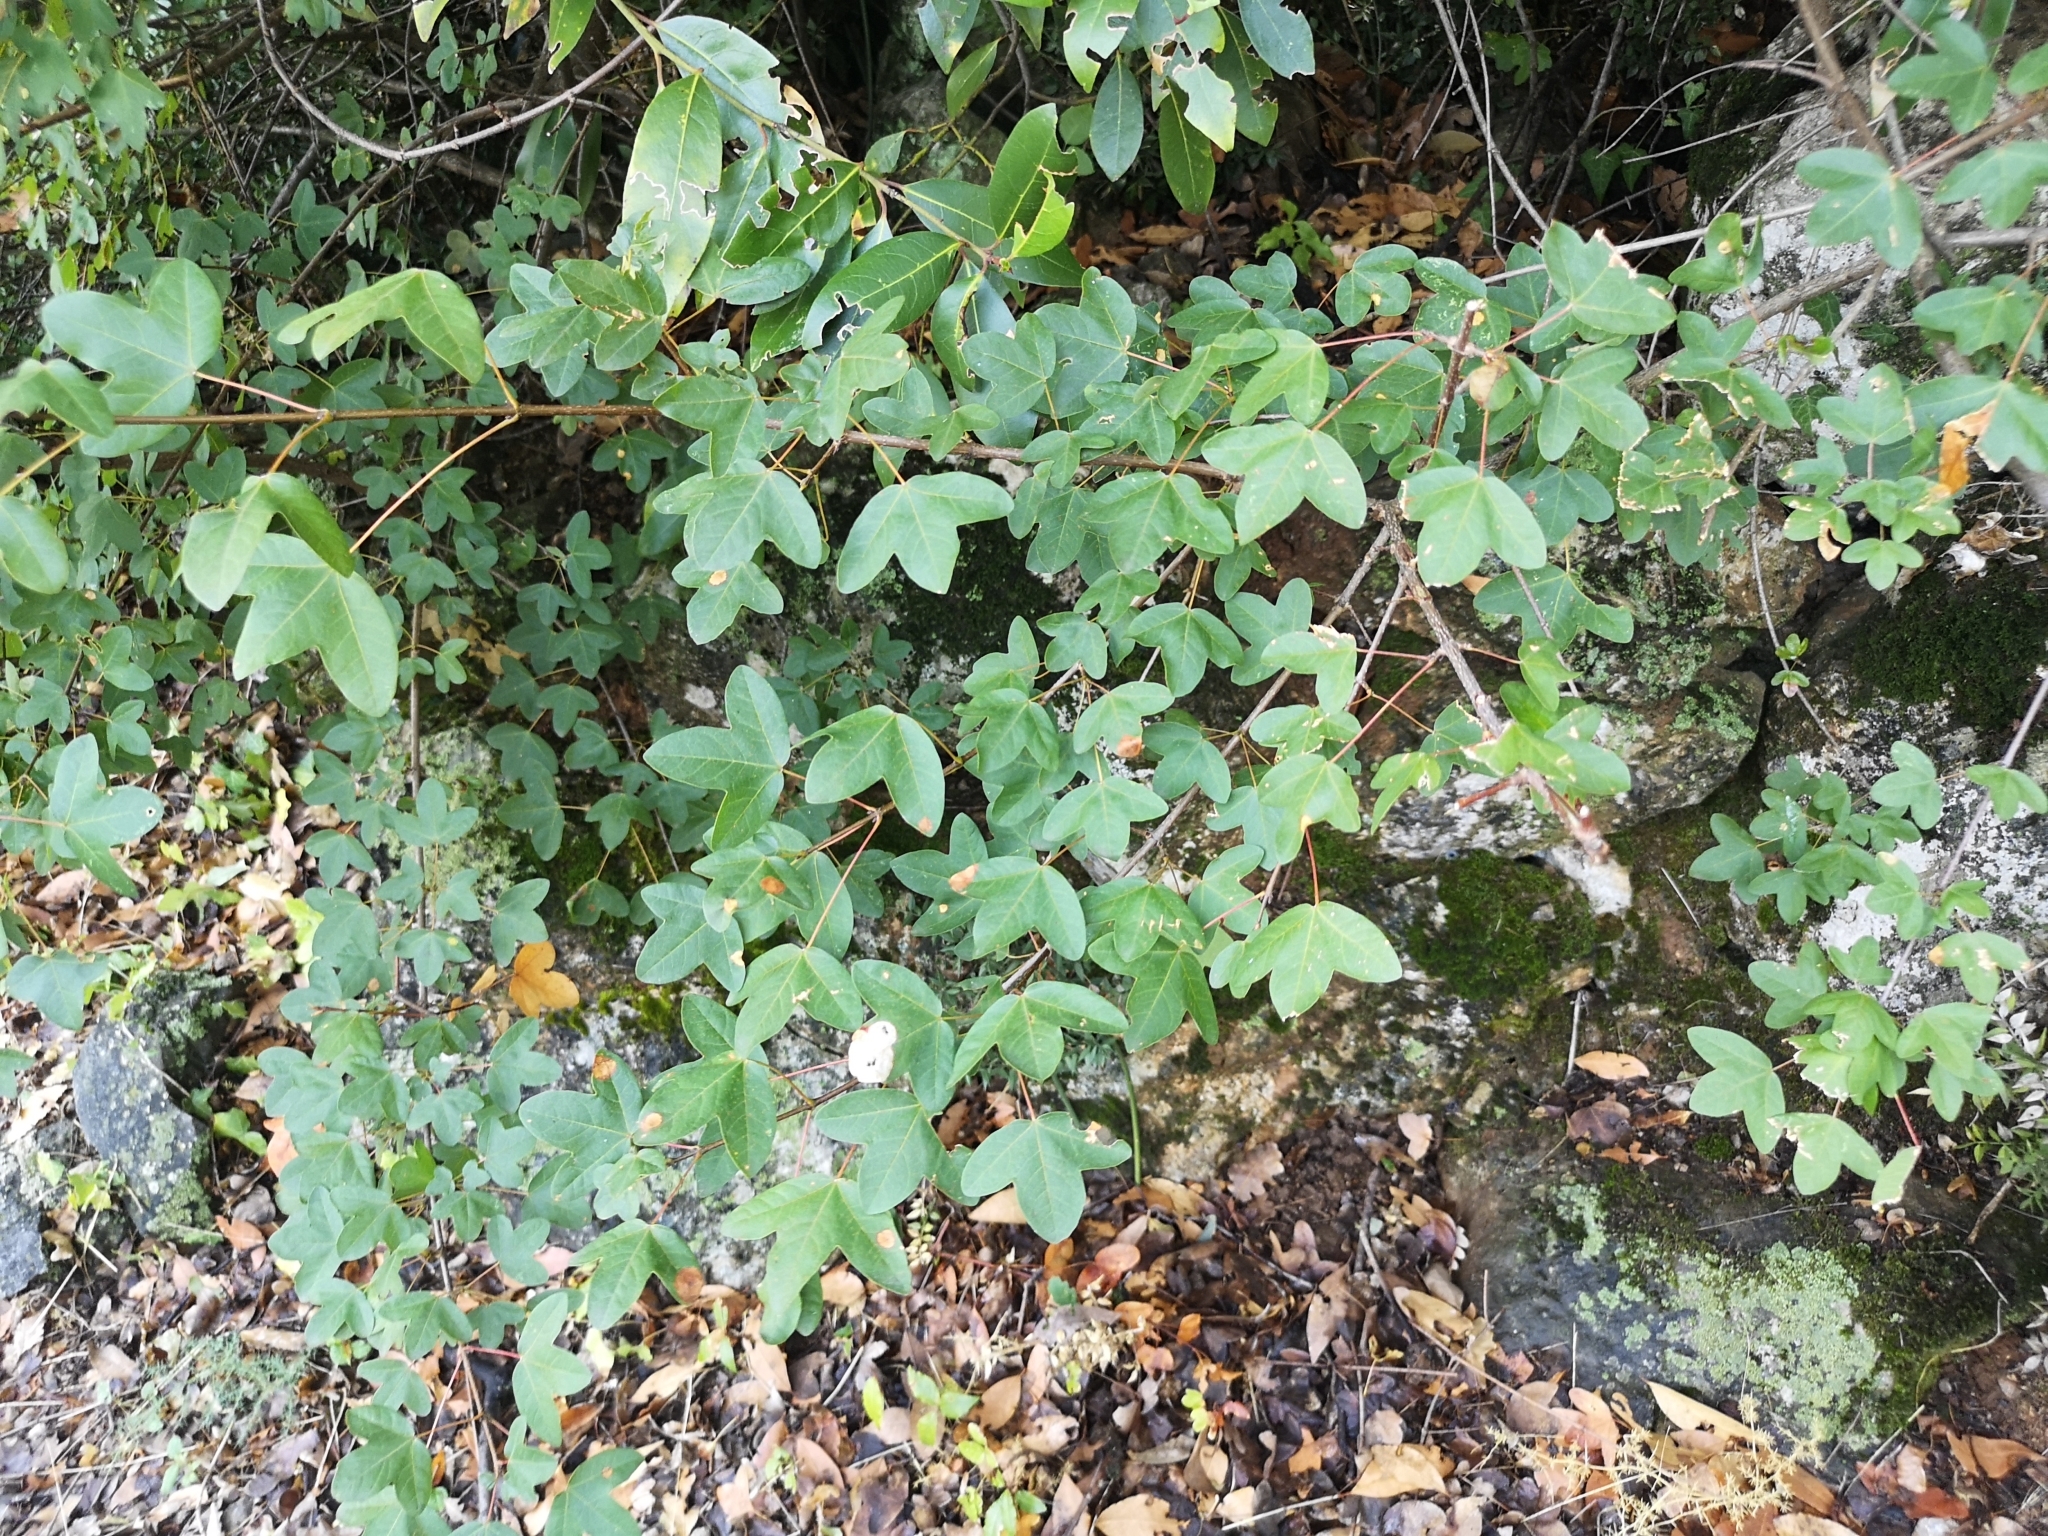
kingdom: Plantae
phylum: Tracheophyta
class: Magnoliopsida
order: Sapindales
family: Sapindaceae
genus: Acer
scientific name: Acer monspessulanum
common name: Montpellier maple
